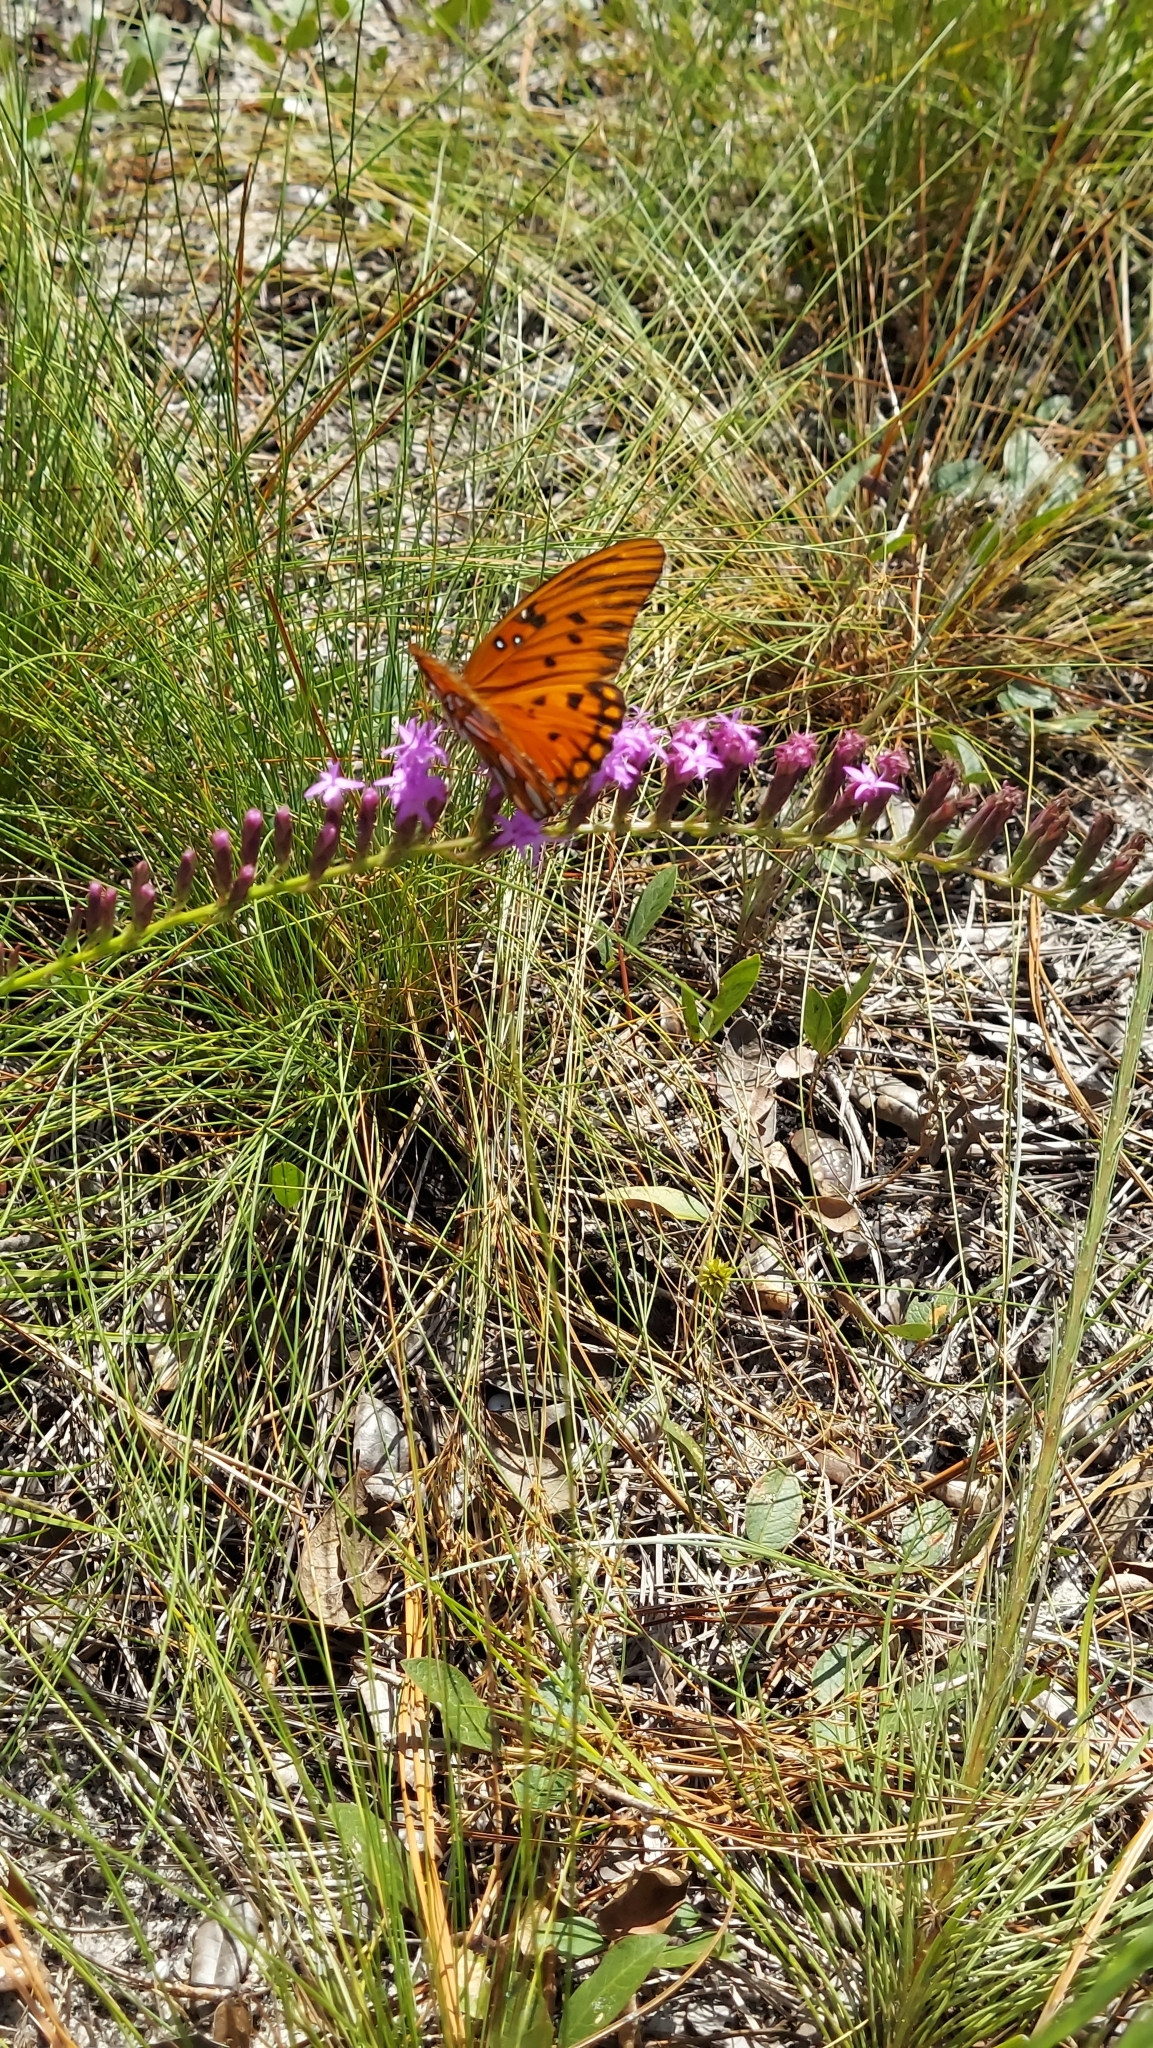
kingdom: Animalia
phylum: Arthropoda
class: Insecta
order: Lepidoptera
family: Nymphalidae
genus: Dione
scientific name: Dione vanillae
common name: Gulf fritillary
